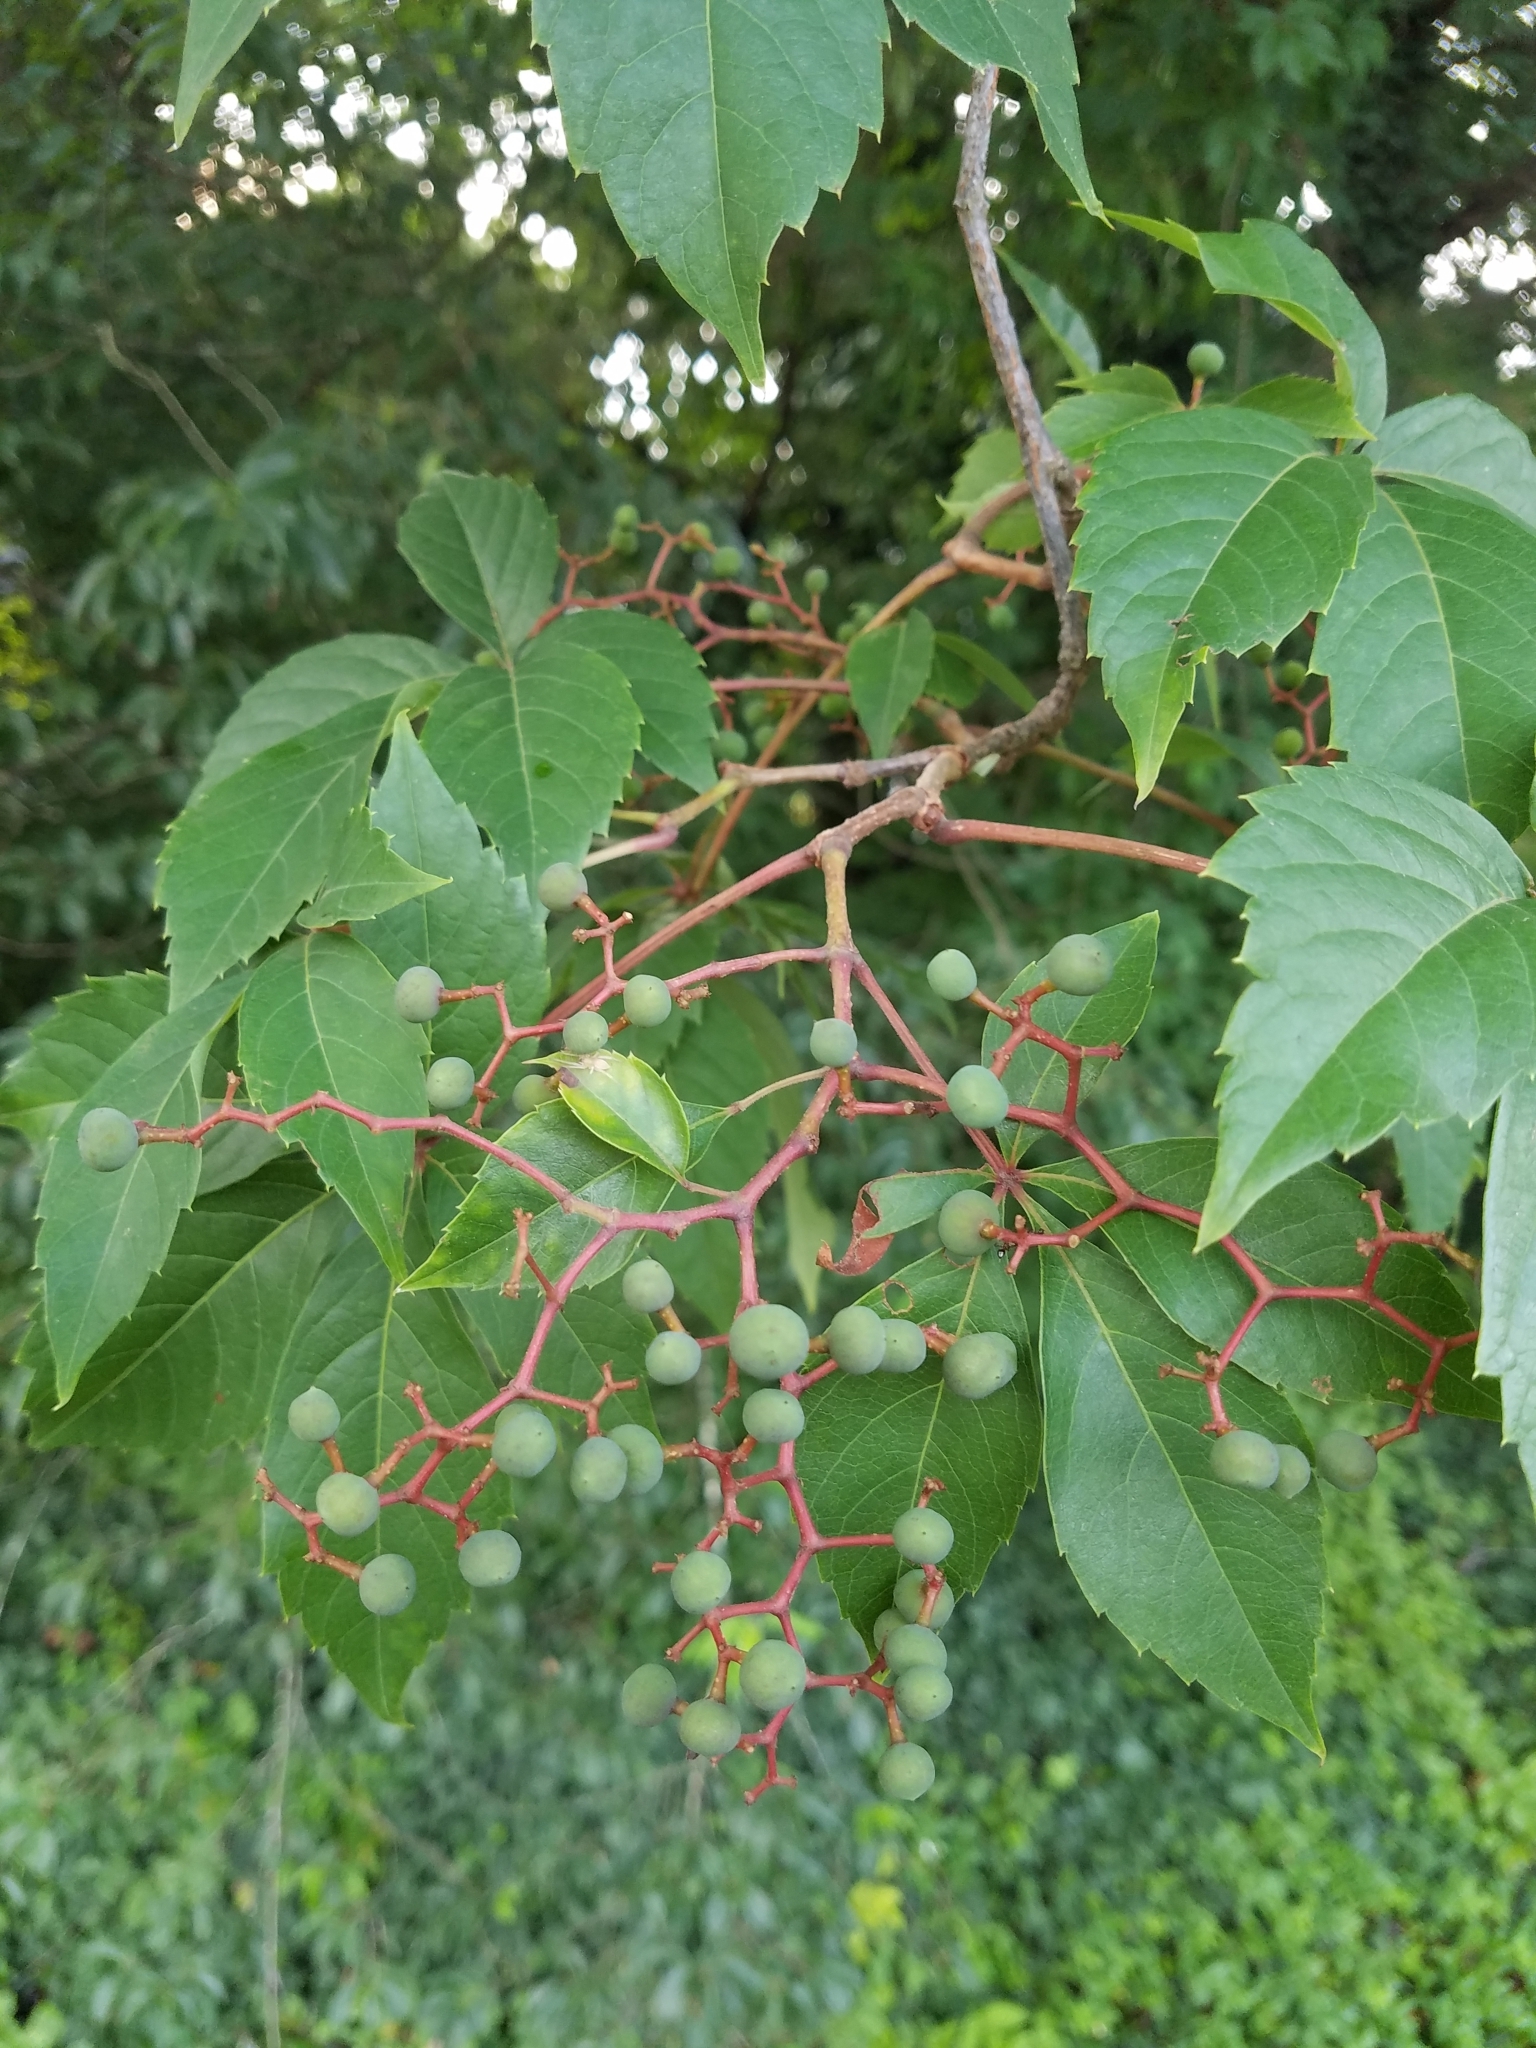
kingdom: Plantae
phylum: Tracheophyta
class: Magnoliopsida
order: Vitales
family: Vitaceae
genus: Parthenocissus
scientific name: Parthenocissus quinquefolia
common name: Virginia-creeper
